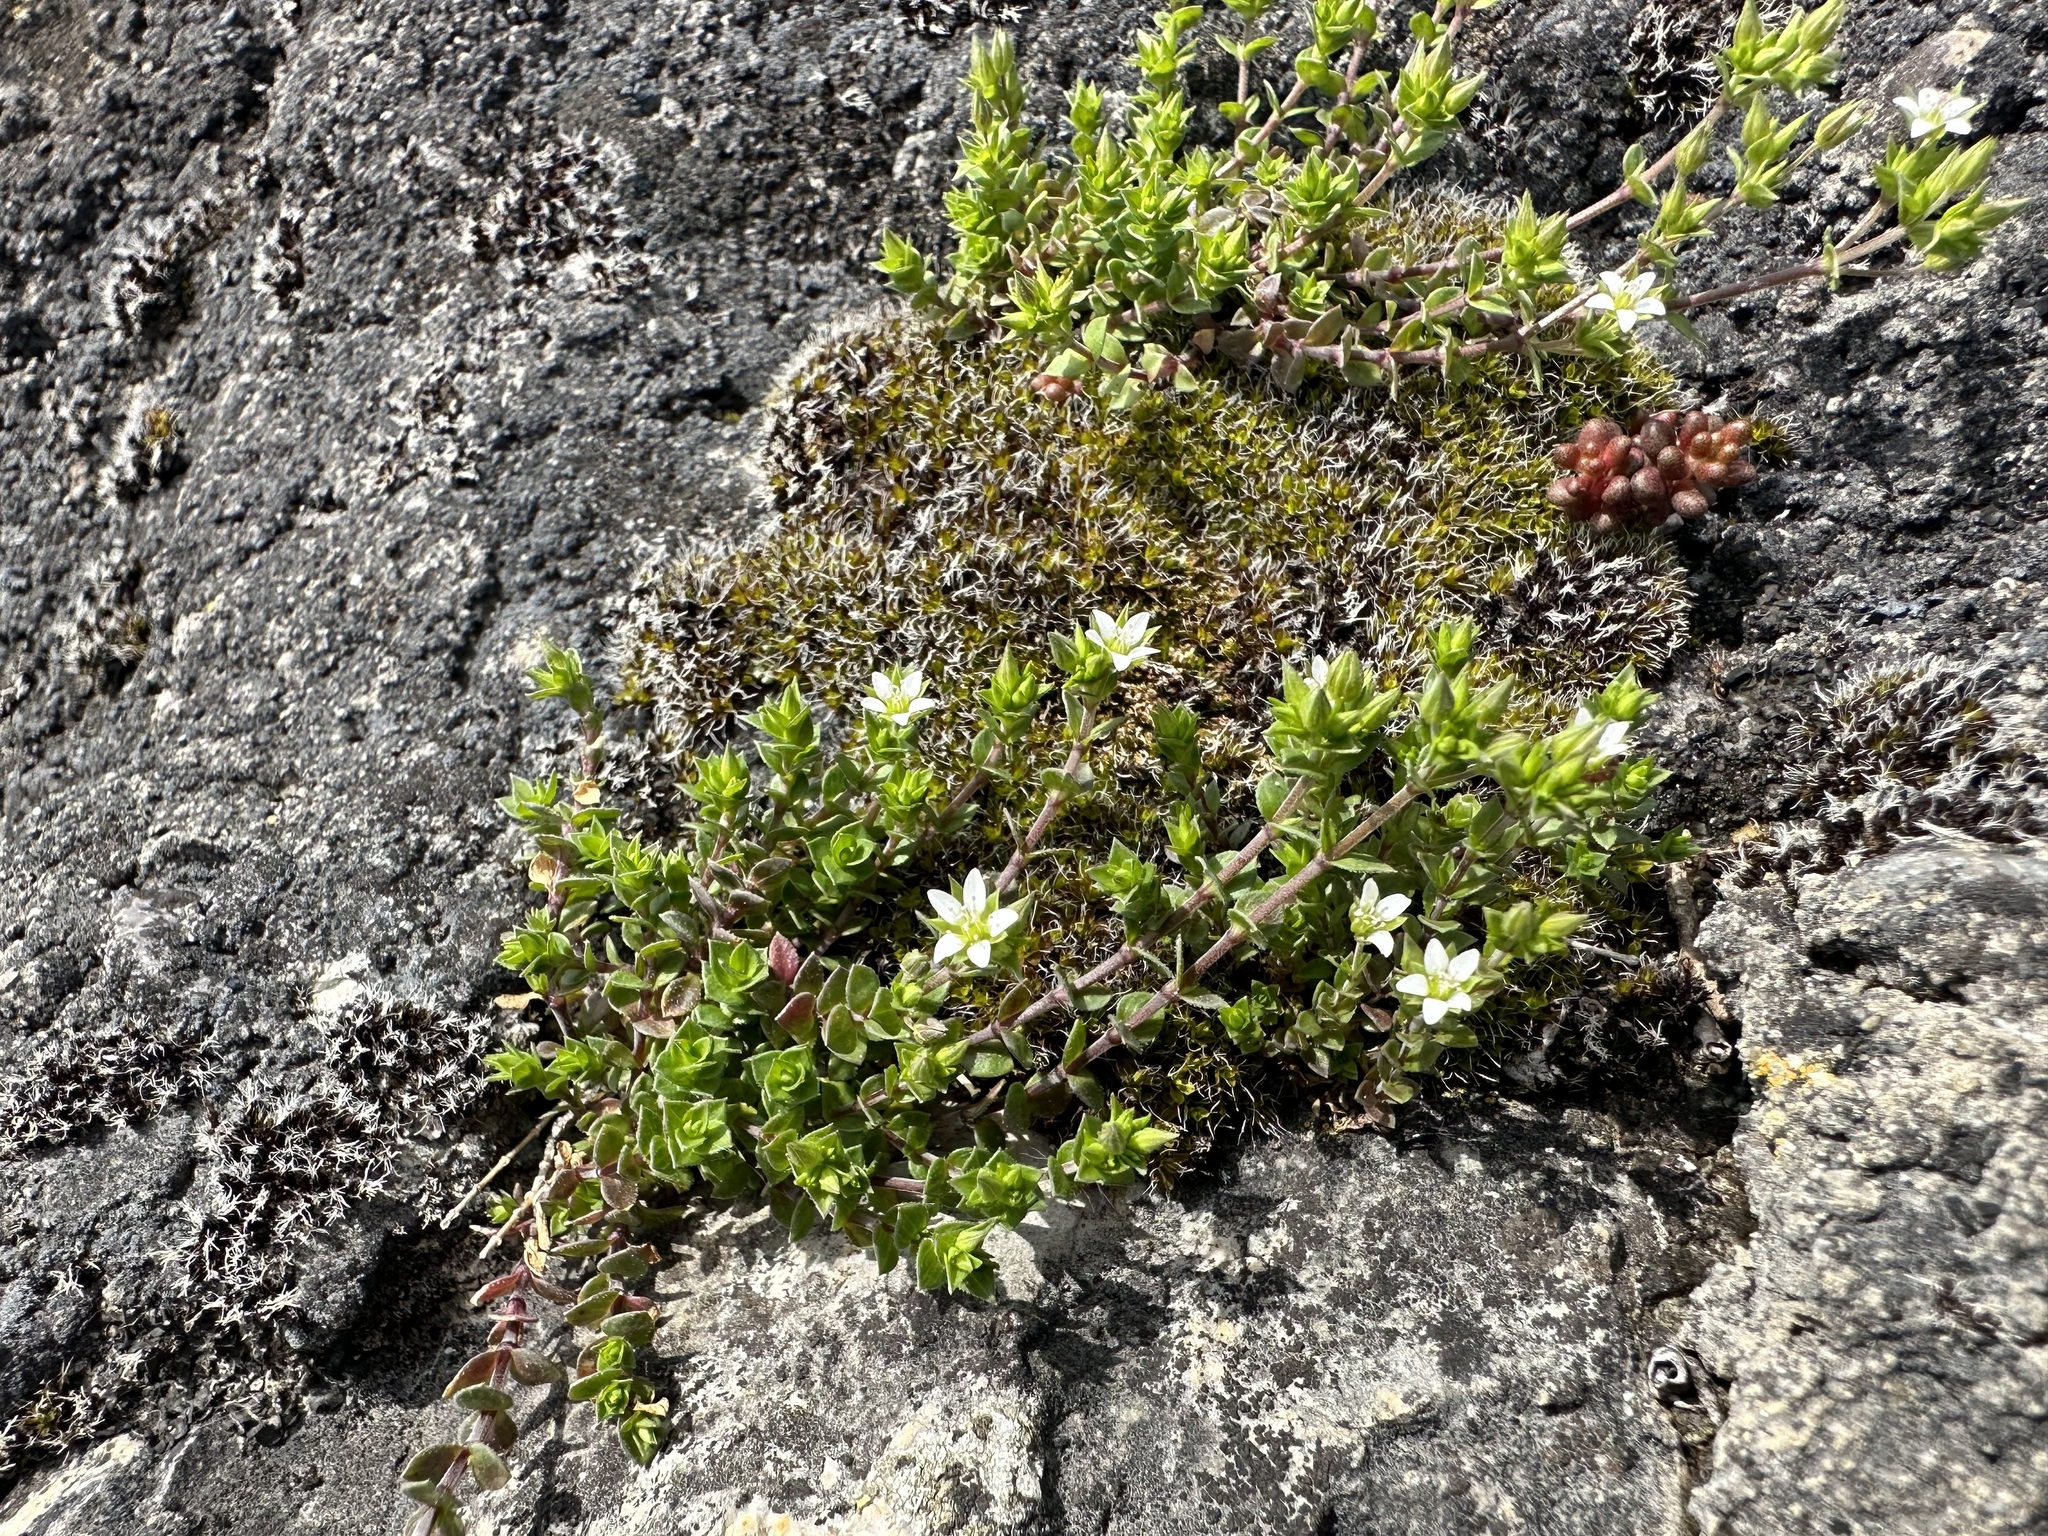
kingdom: Plantae
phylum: Tracheophyta
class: Magnoliopsida
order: Caryophyllales
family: Caryophyllaceae
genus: Arenaria
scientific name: Arenaria serpyllifolia
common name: Thyme-leaved sandwort
